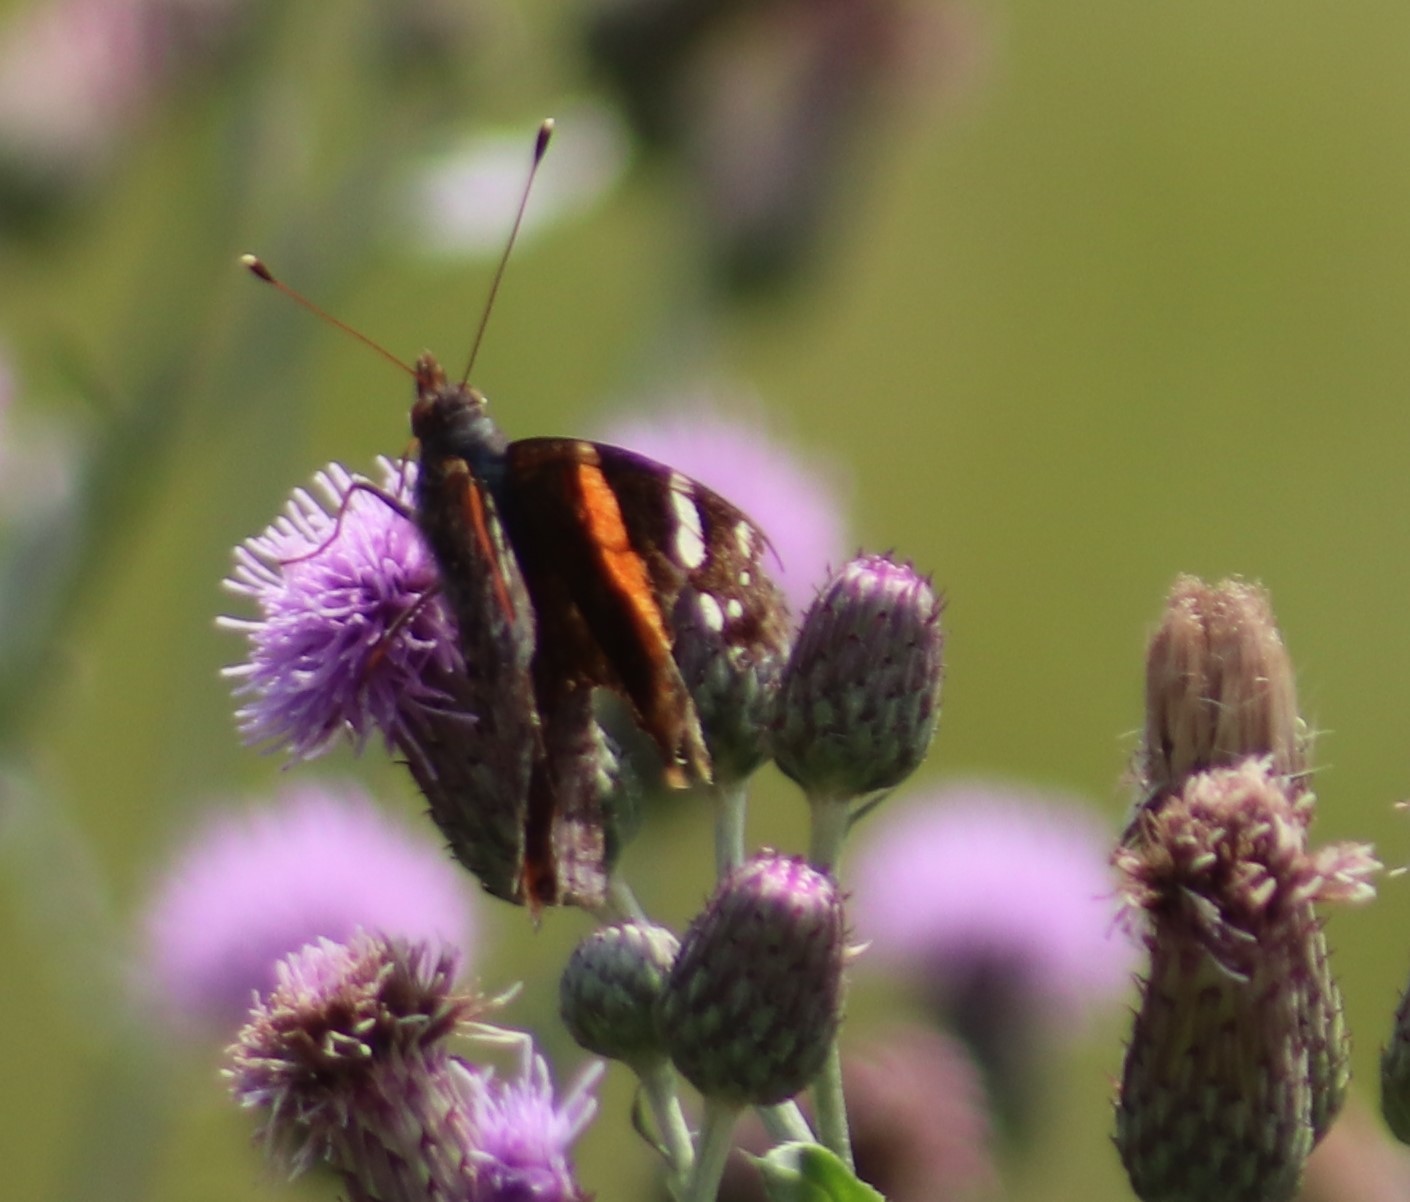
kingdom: Animalia
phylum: Arthropoda
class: Insecta
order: Lepidoptera
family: Nymphalidae
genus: Vanessa
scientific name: Vanessa atalanta
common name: Red admiral
